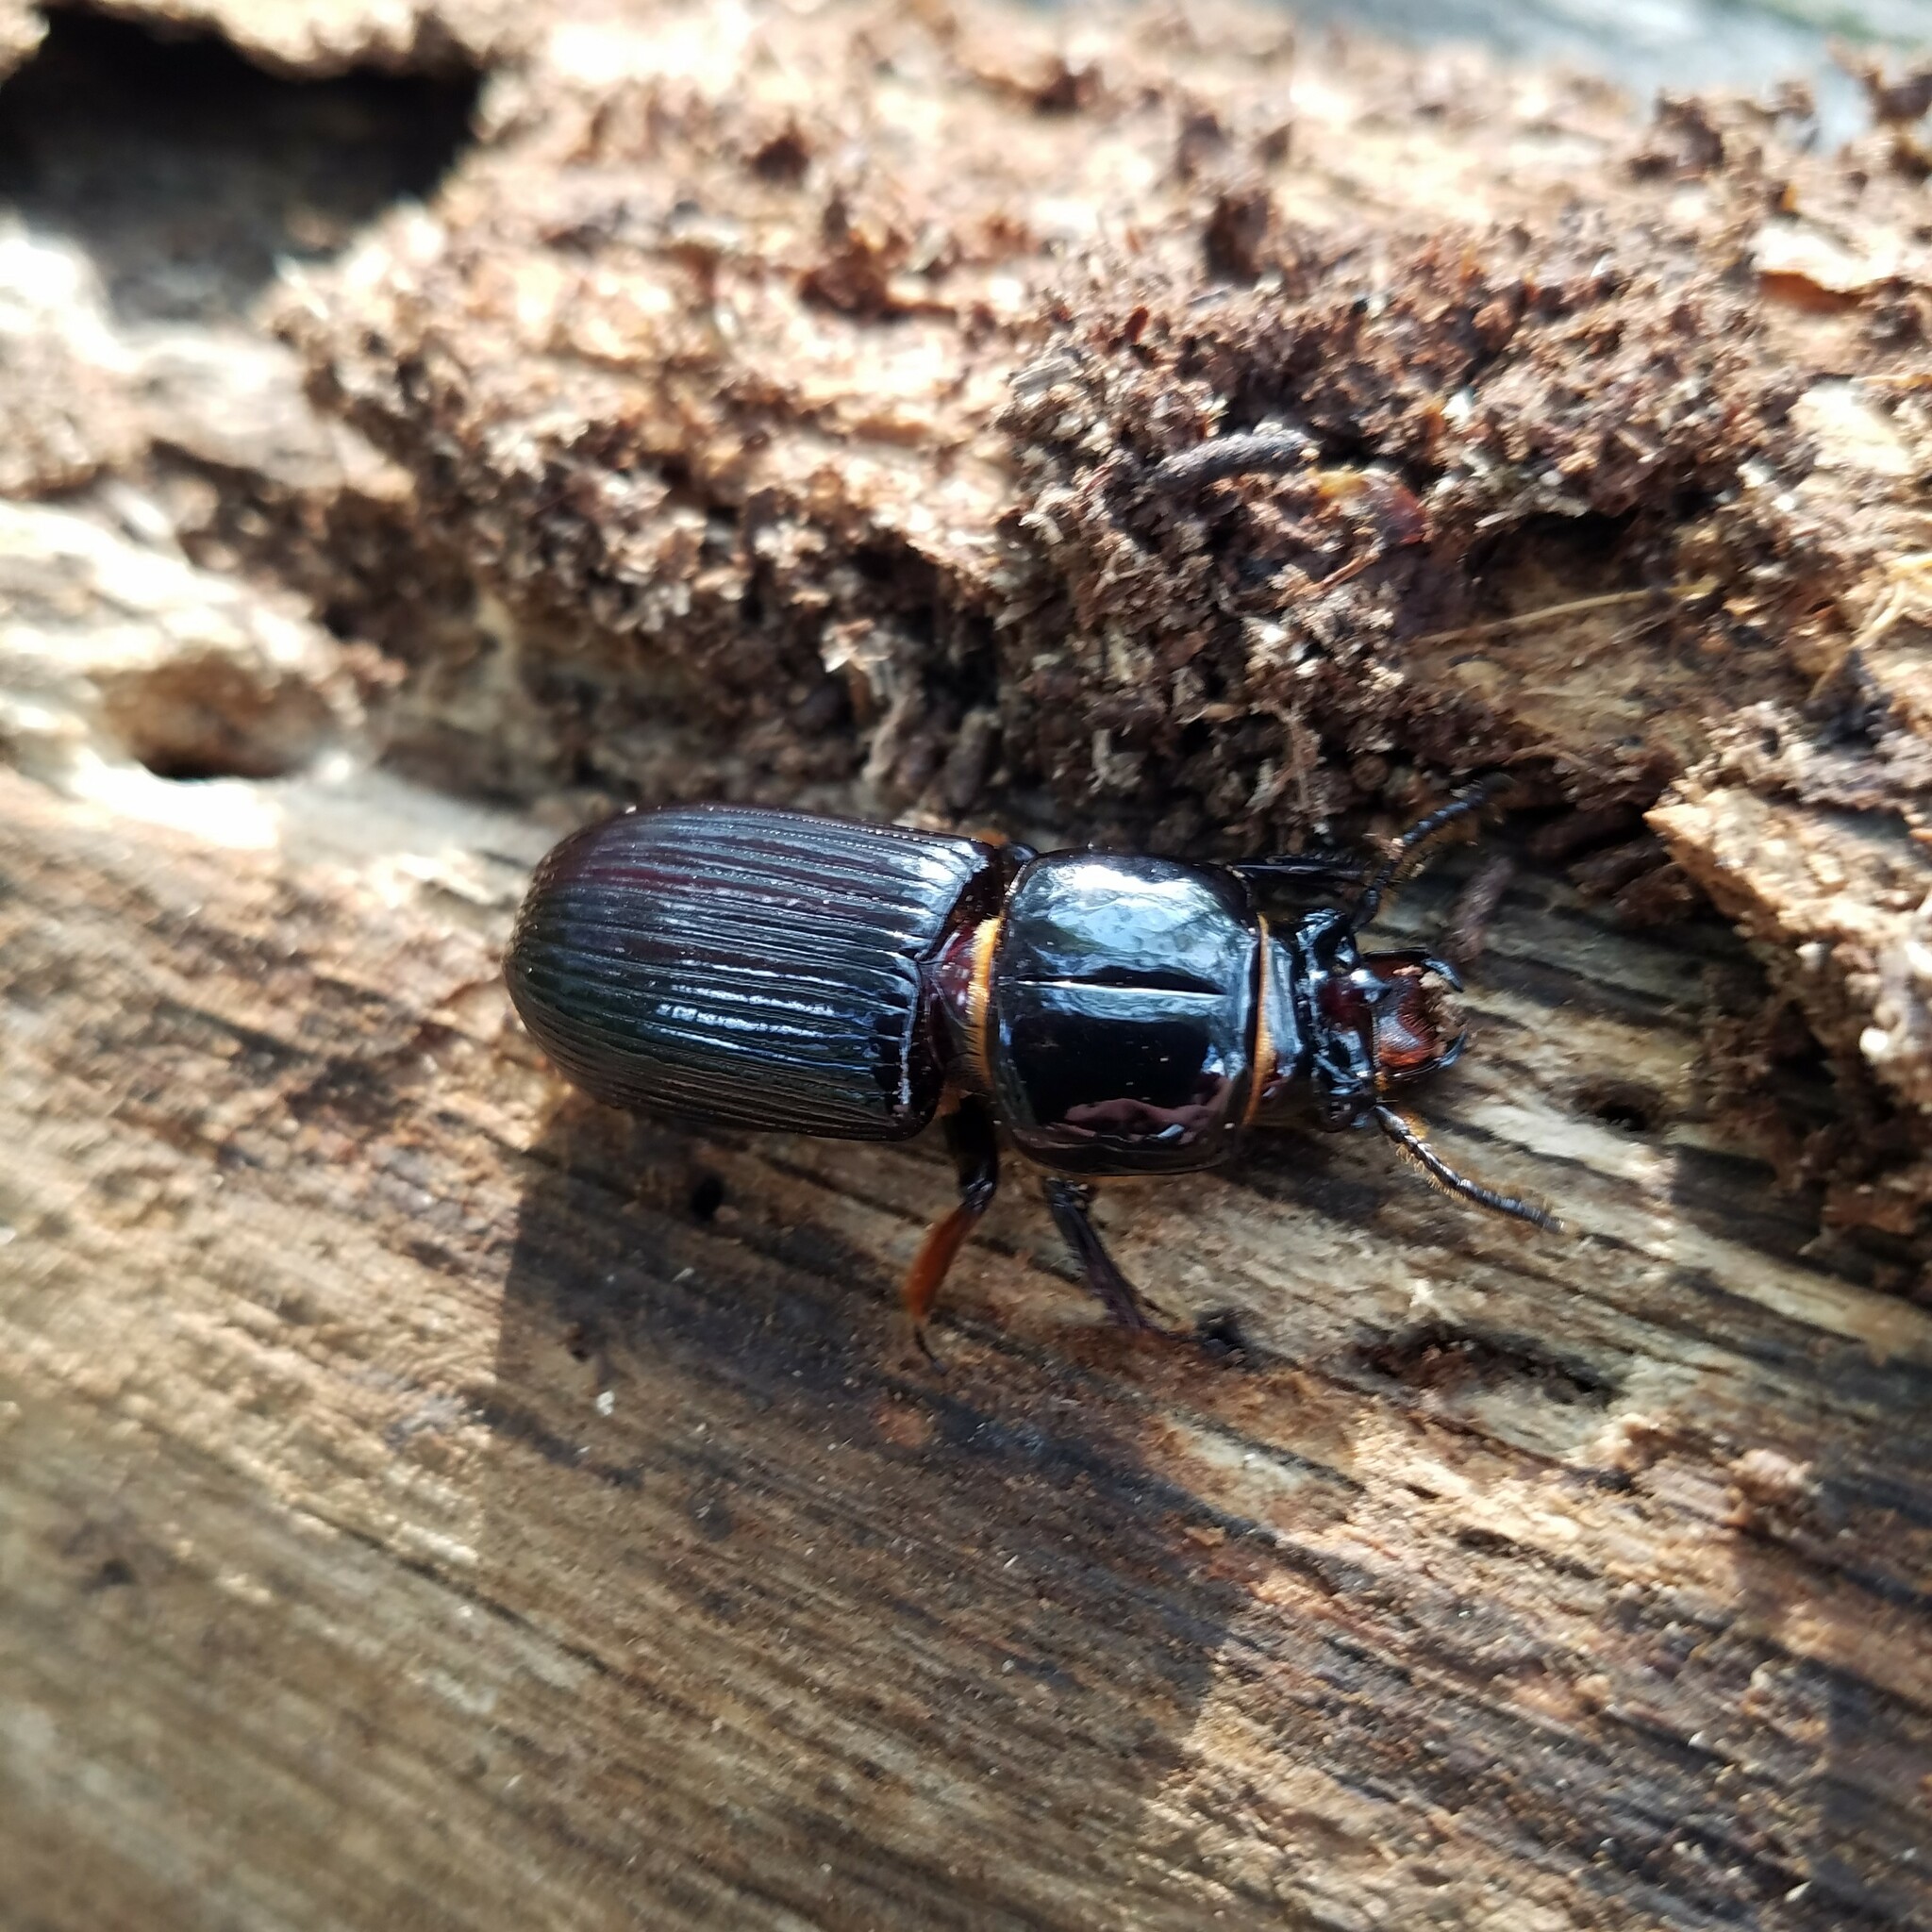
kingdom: Animalia
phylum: Arthropoda
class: Insecta
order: Coleoptera
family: Passalidae
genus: Odontotaenius
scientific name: Odontotaenius disjunctus
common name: Patent leather beetle
